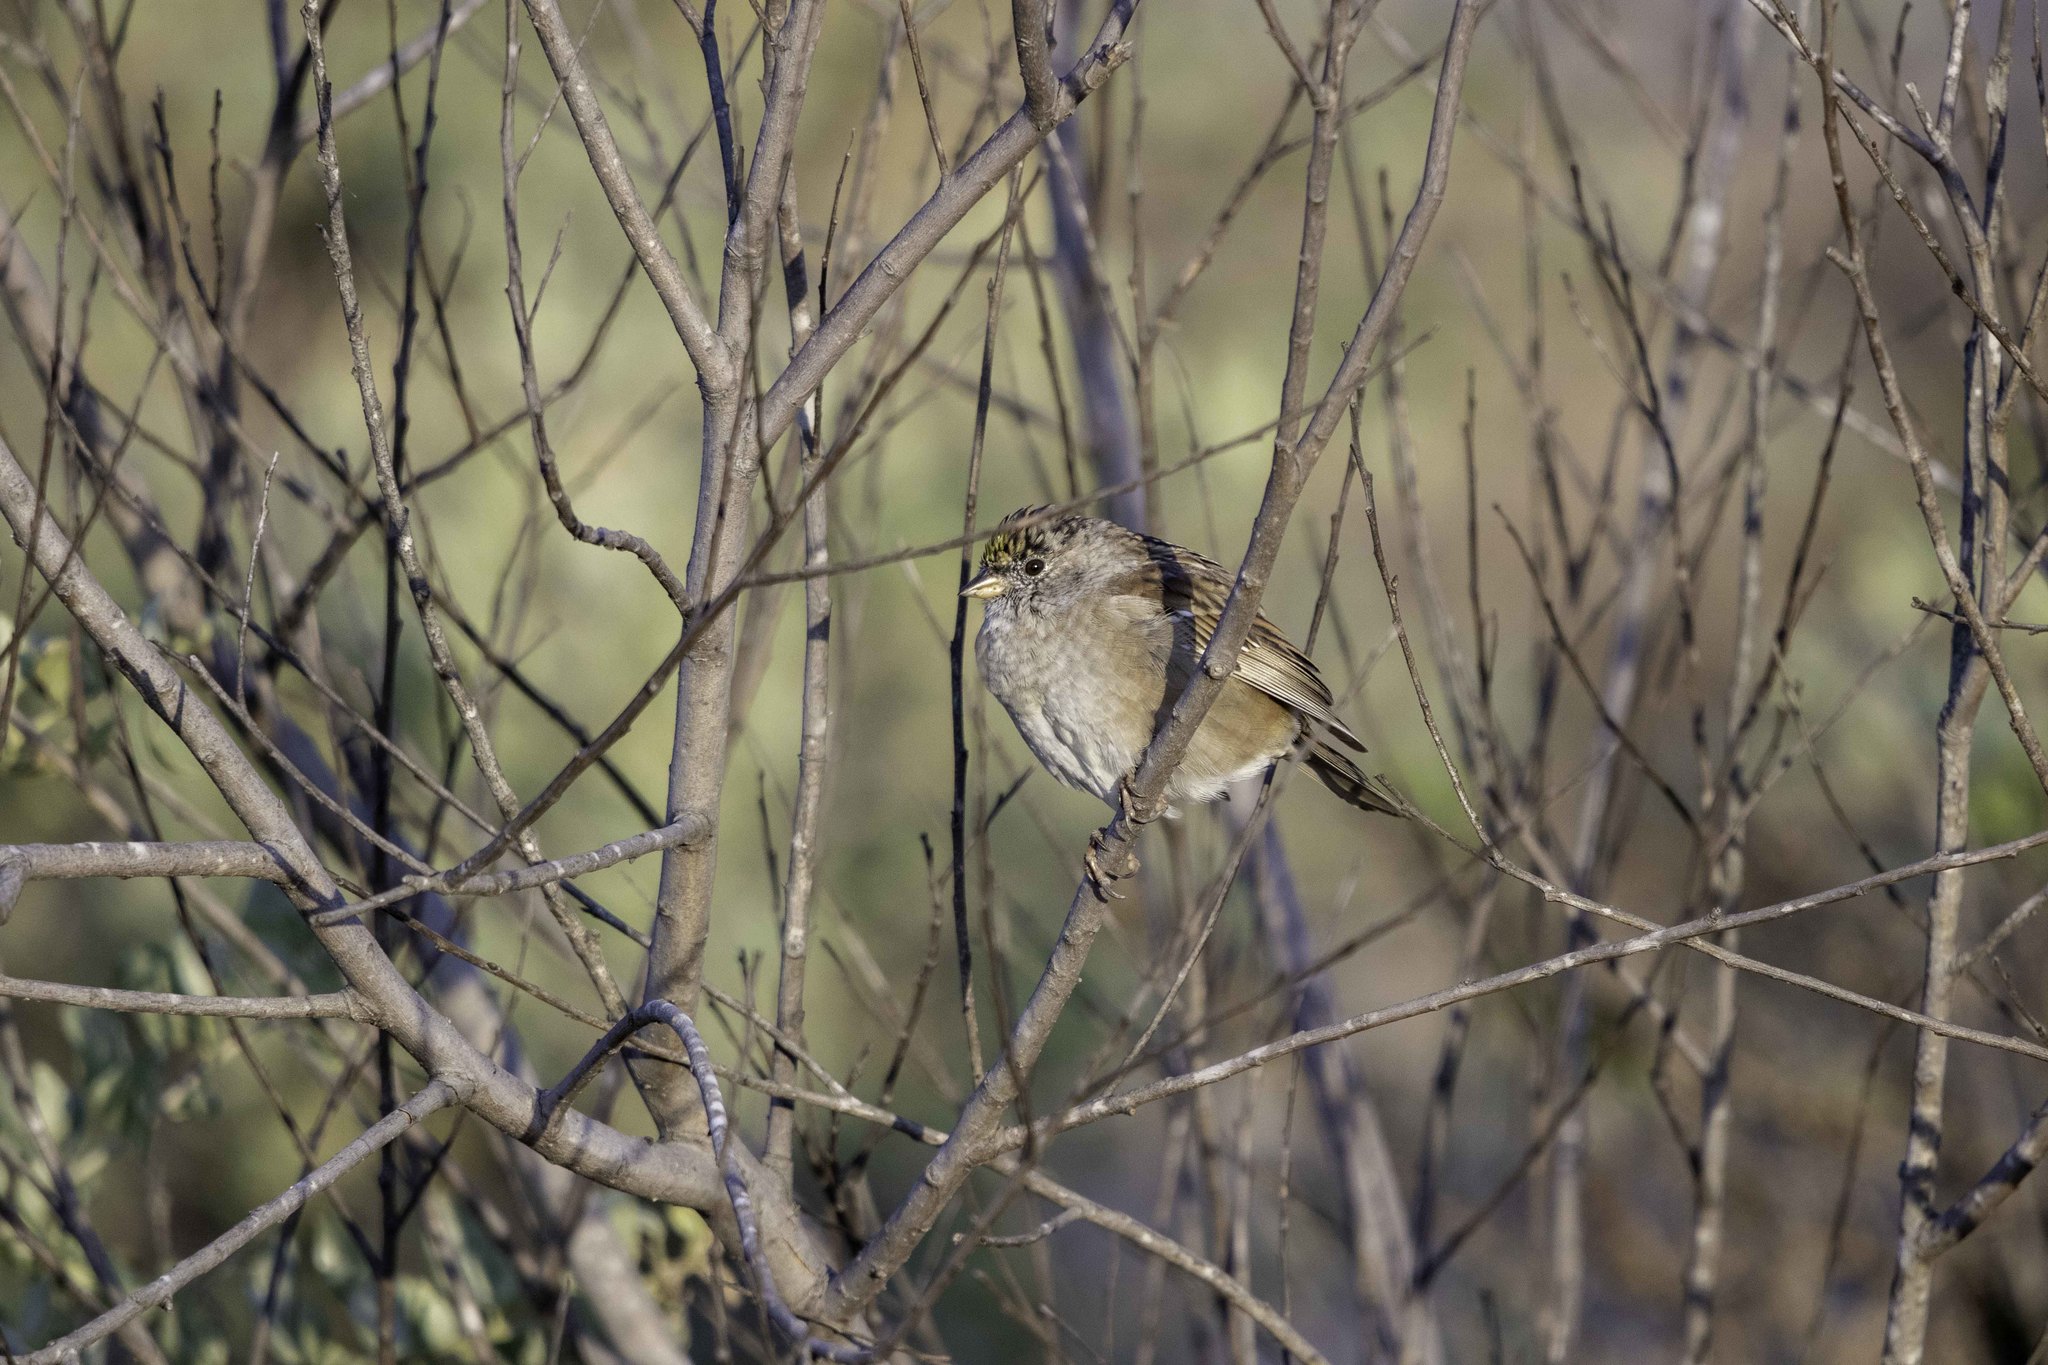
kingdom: Animalia
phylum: Chordata
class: Aves
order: Passeriformes
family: Passerellidae
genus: Zonotrichia
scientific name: Zonotrichia atricapilla
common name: Golden-crowned sparrow
